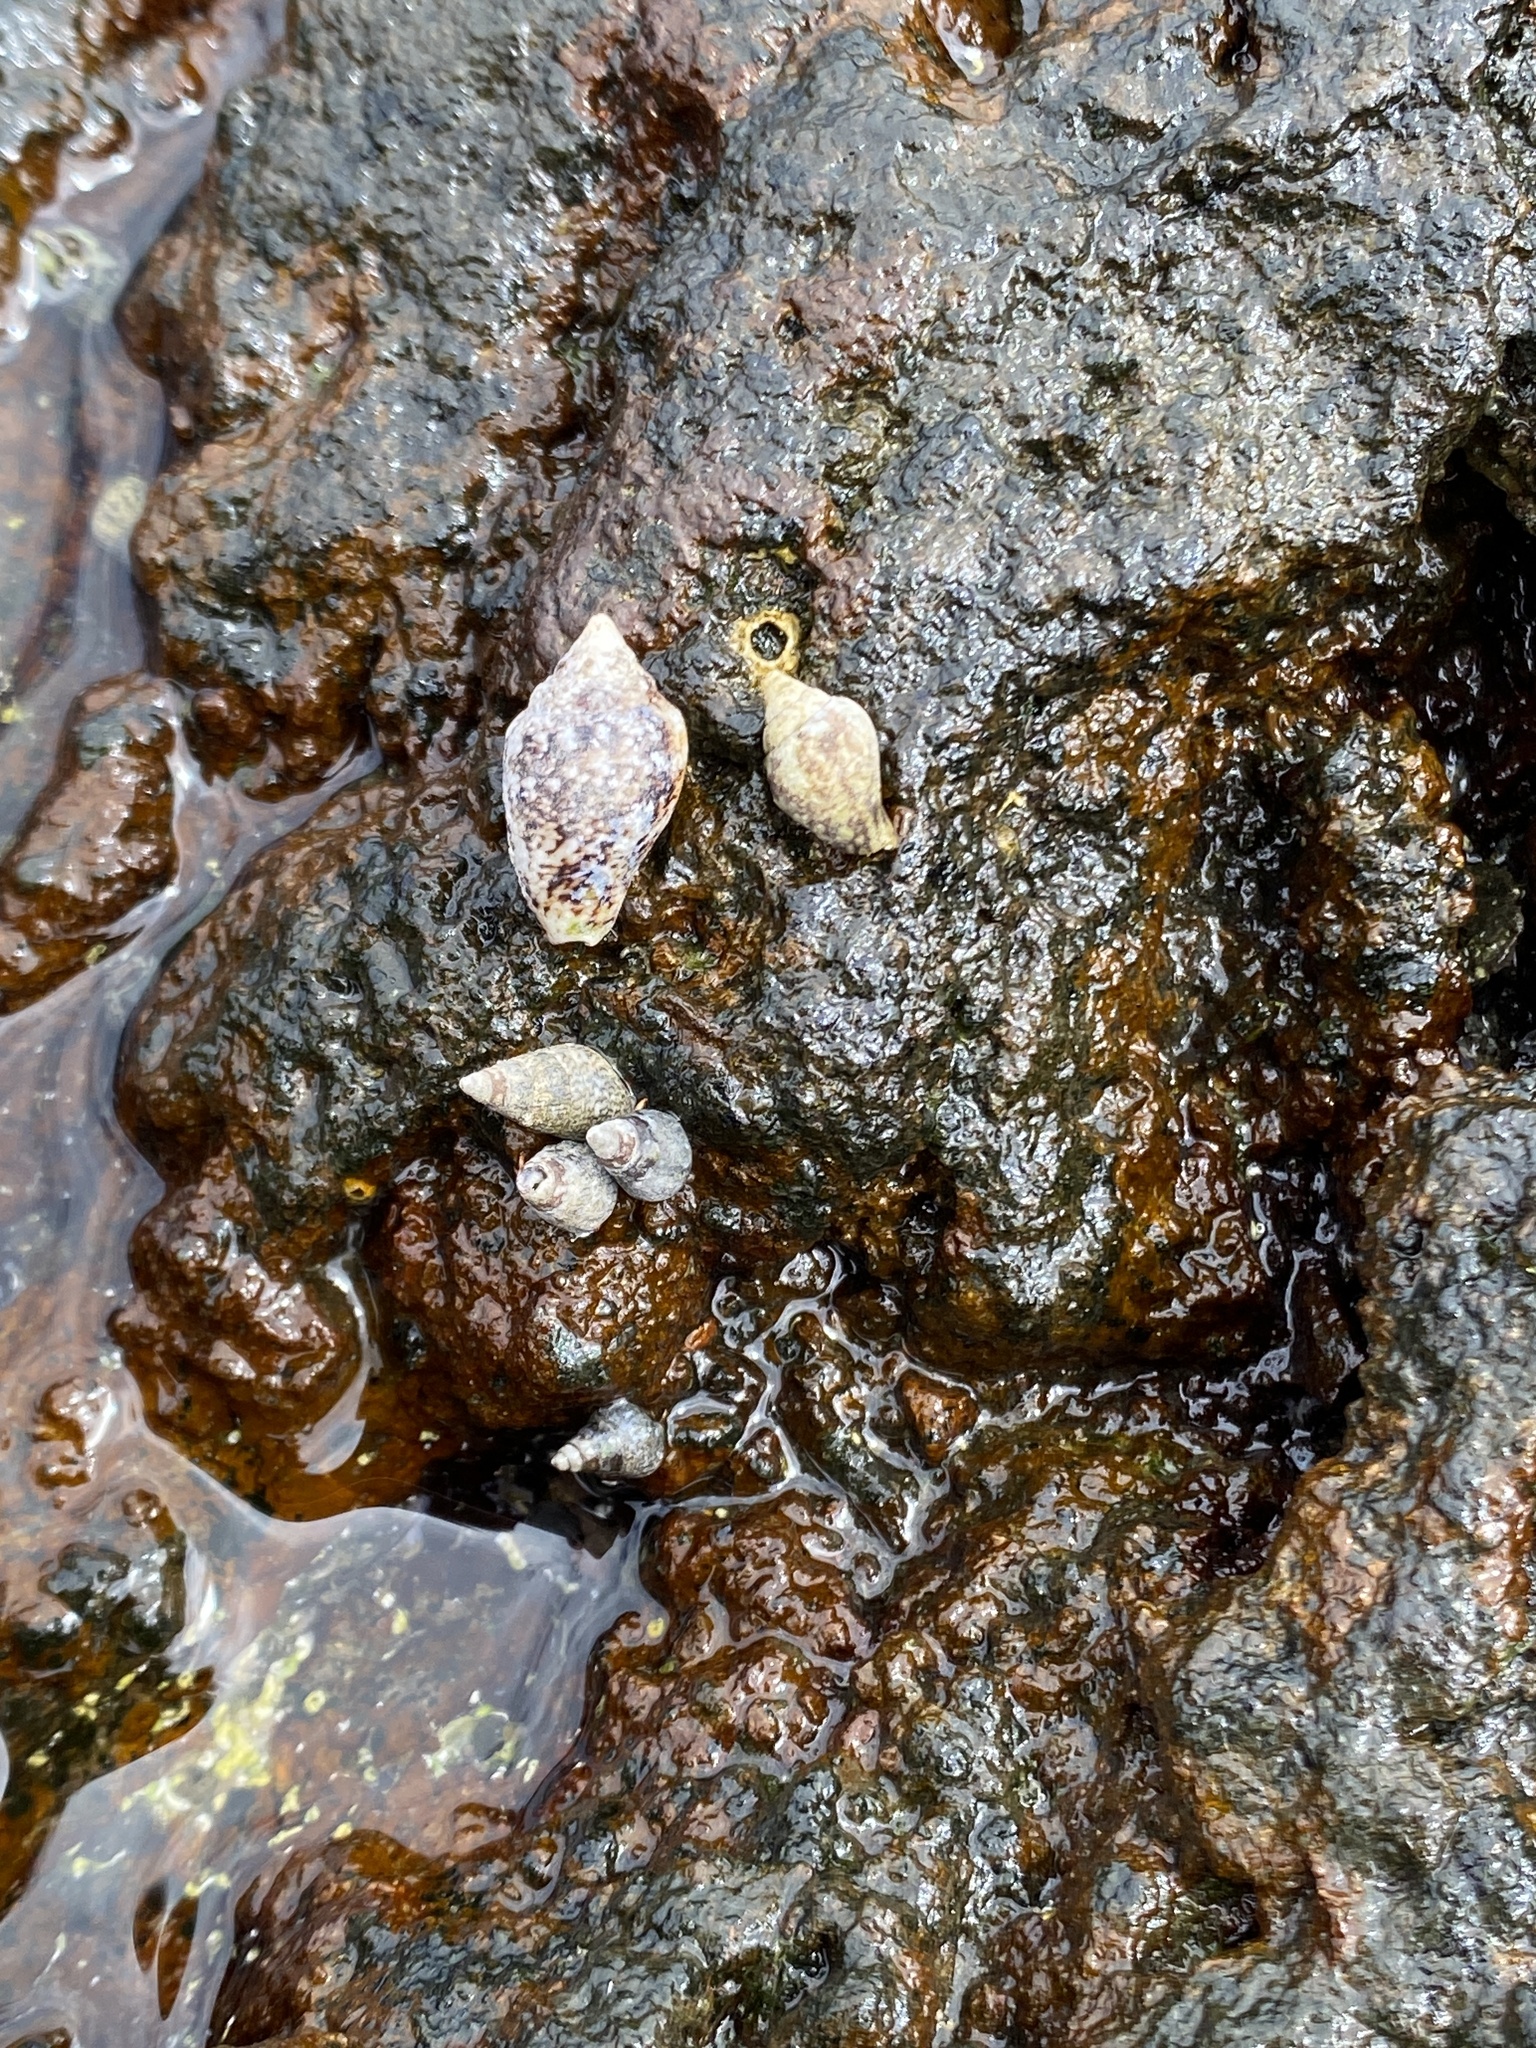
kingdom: Animalia
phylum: Mollusca
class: Gastropoda
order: Neogastropoda
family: Columbellidae
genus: Columbella
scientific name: Columbella adansoni
